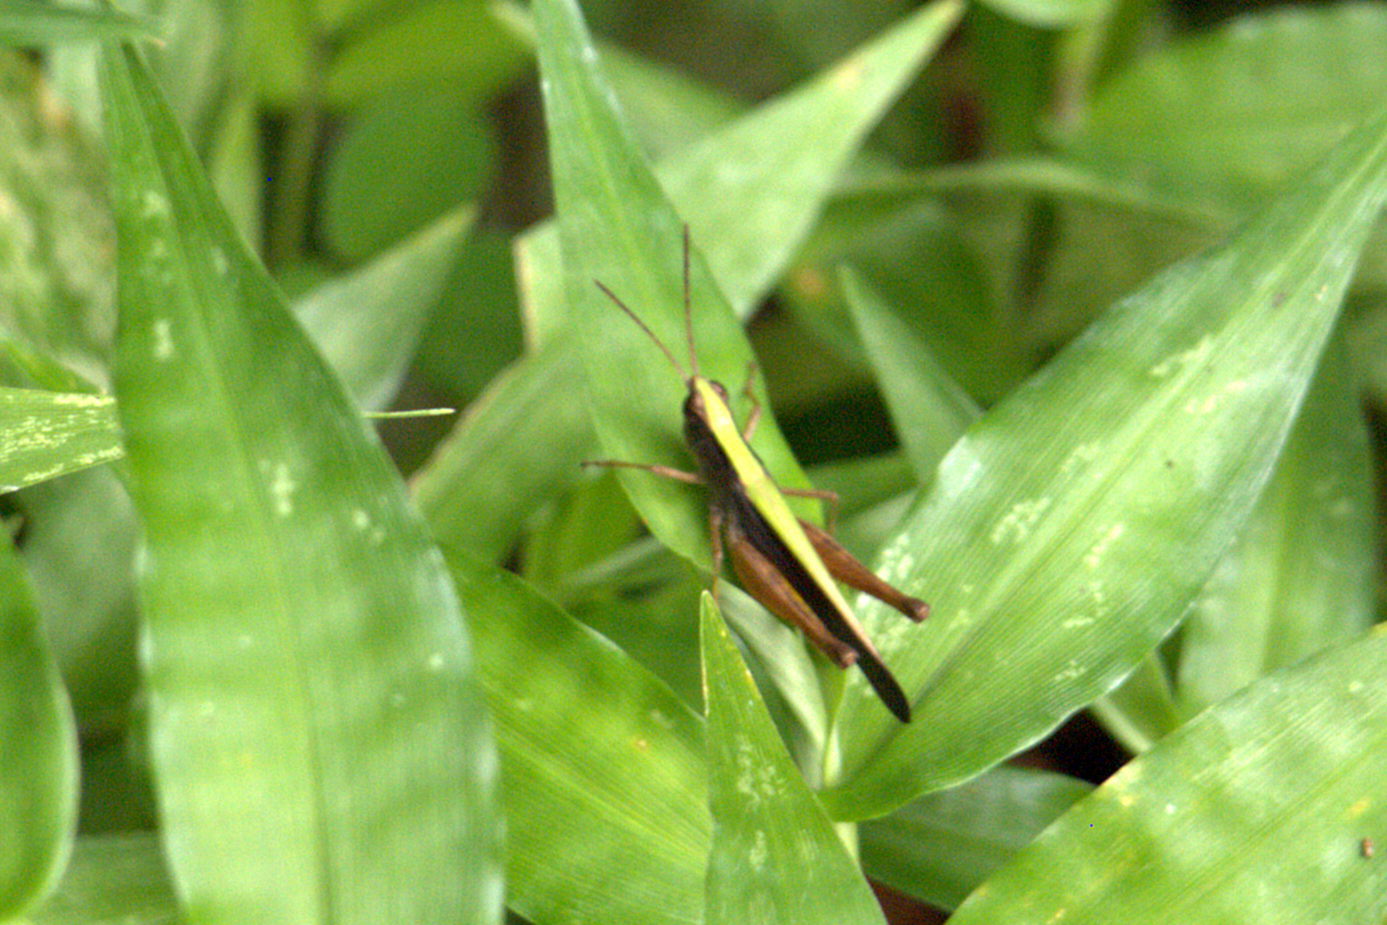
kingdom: Animalia
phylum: Arthropoda
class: Insecta
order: Orthoptera
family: Acrididae
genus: Orphula
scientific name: Orphula azteca
